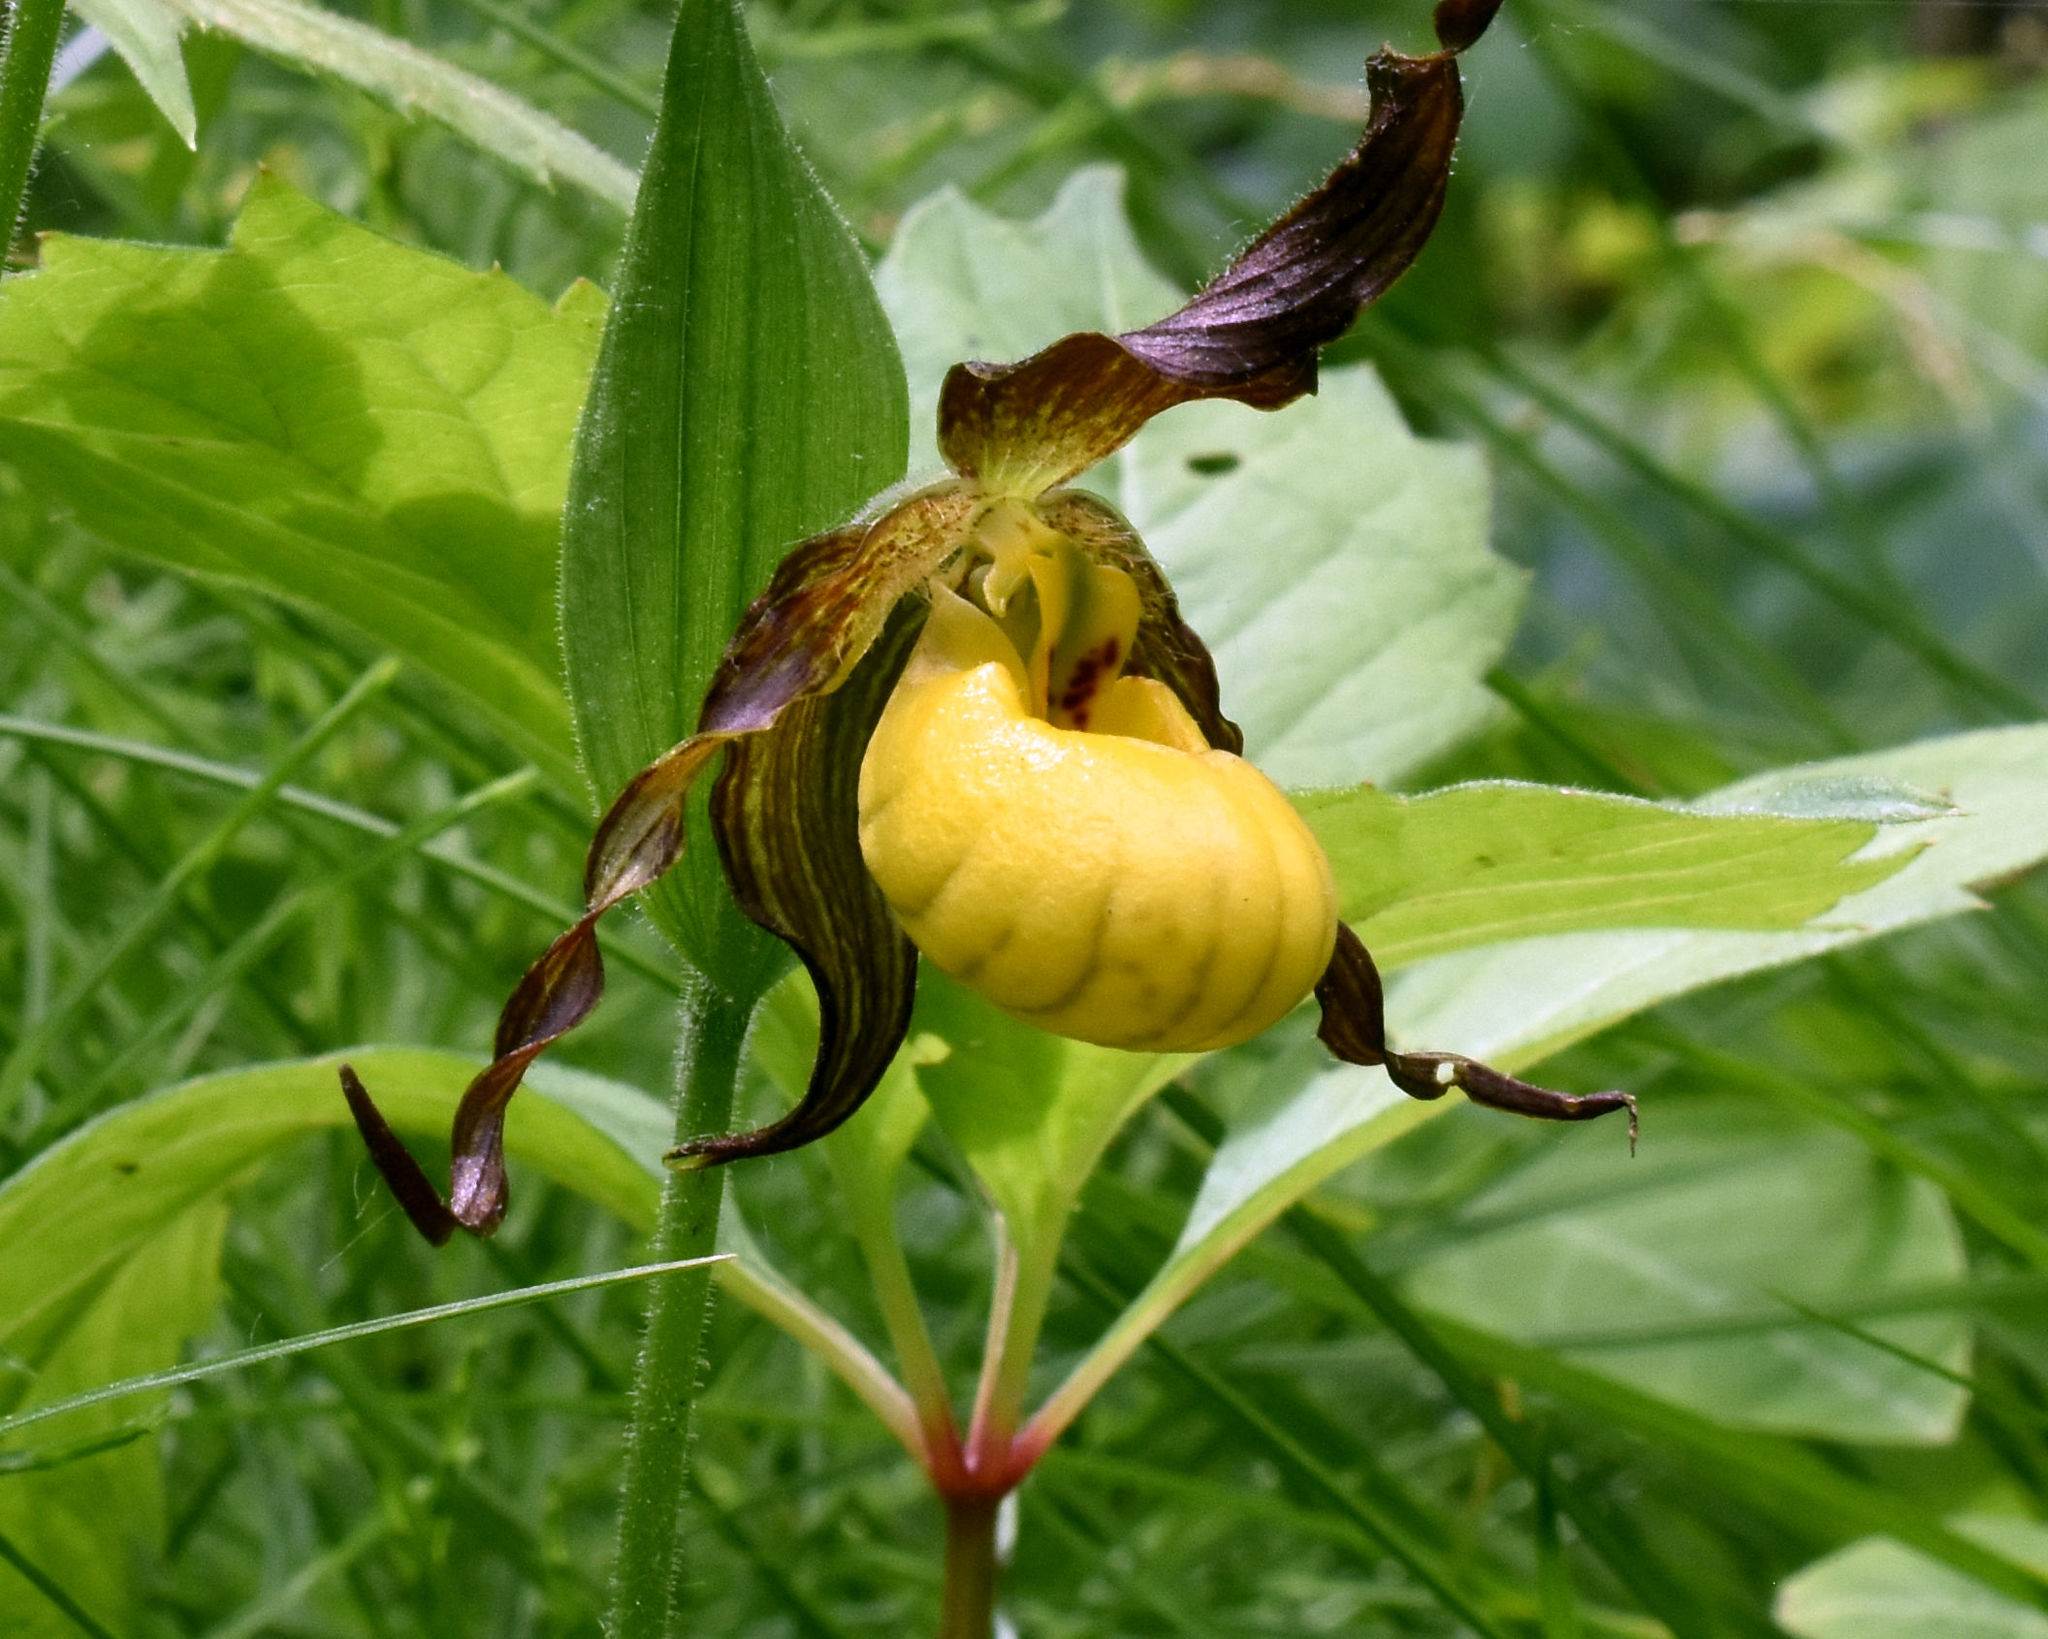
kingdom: Plantae
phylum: Tracheophyta
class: Liliopsida
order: Asparagales
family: Orchidaceae
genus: Cypripedium
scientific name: Cypripedium parviflorum
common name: American yellow lady's-slipper
